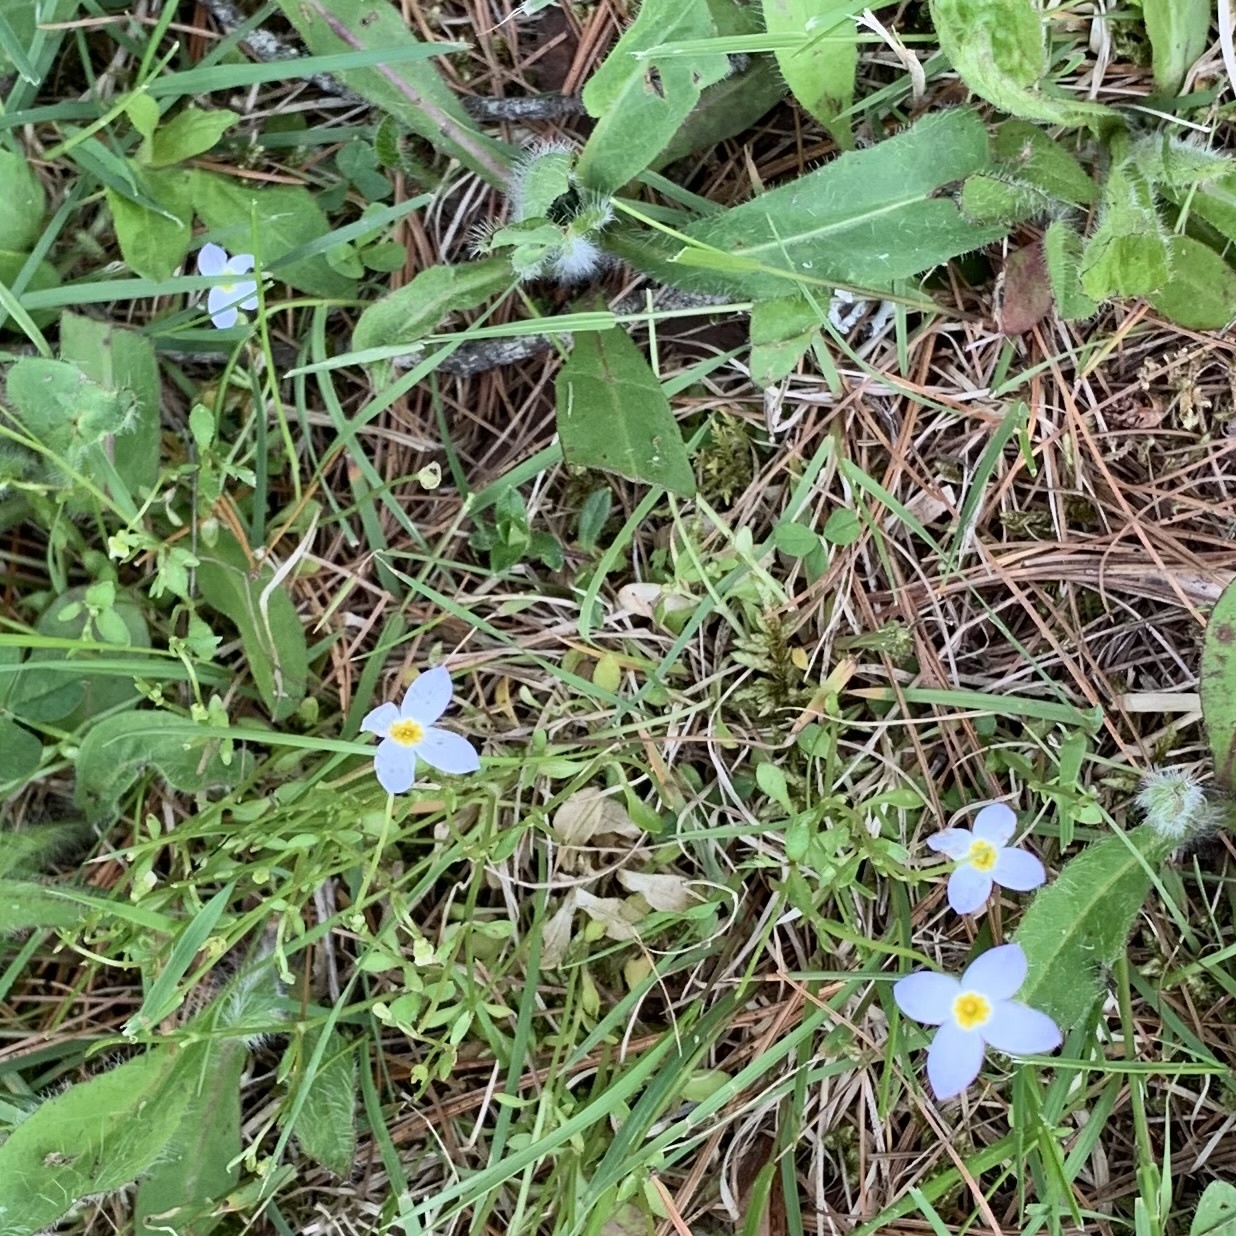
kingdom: Plantae
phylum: Tracheophyta
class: Magnoliopsida
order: Gentianales
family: Rubiaceae
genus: Houstonia
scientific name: Houstonia caerulea
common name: Bluets
